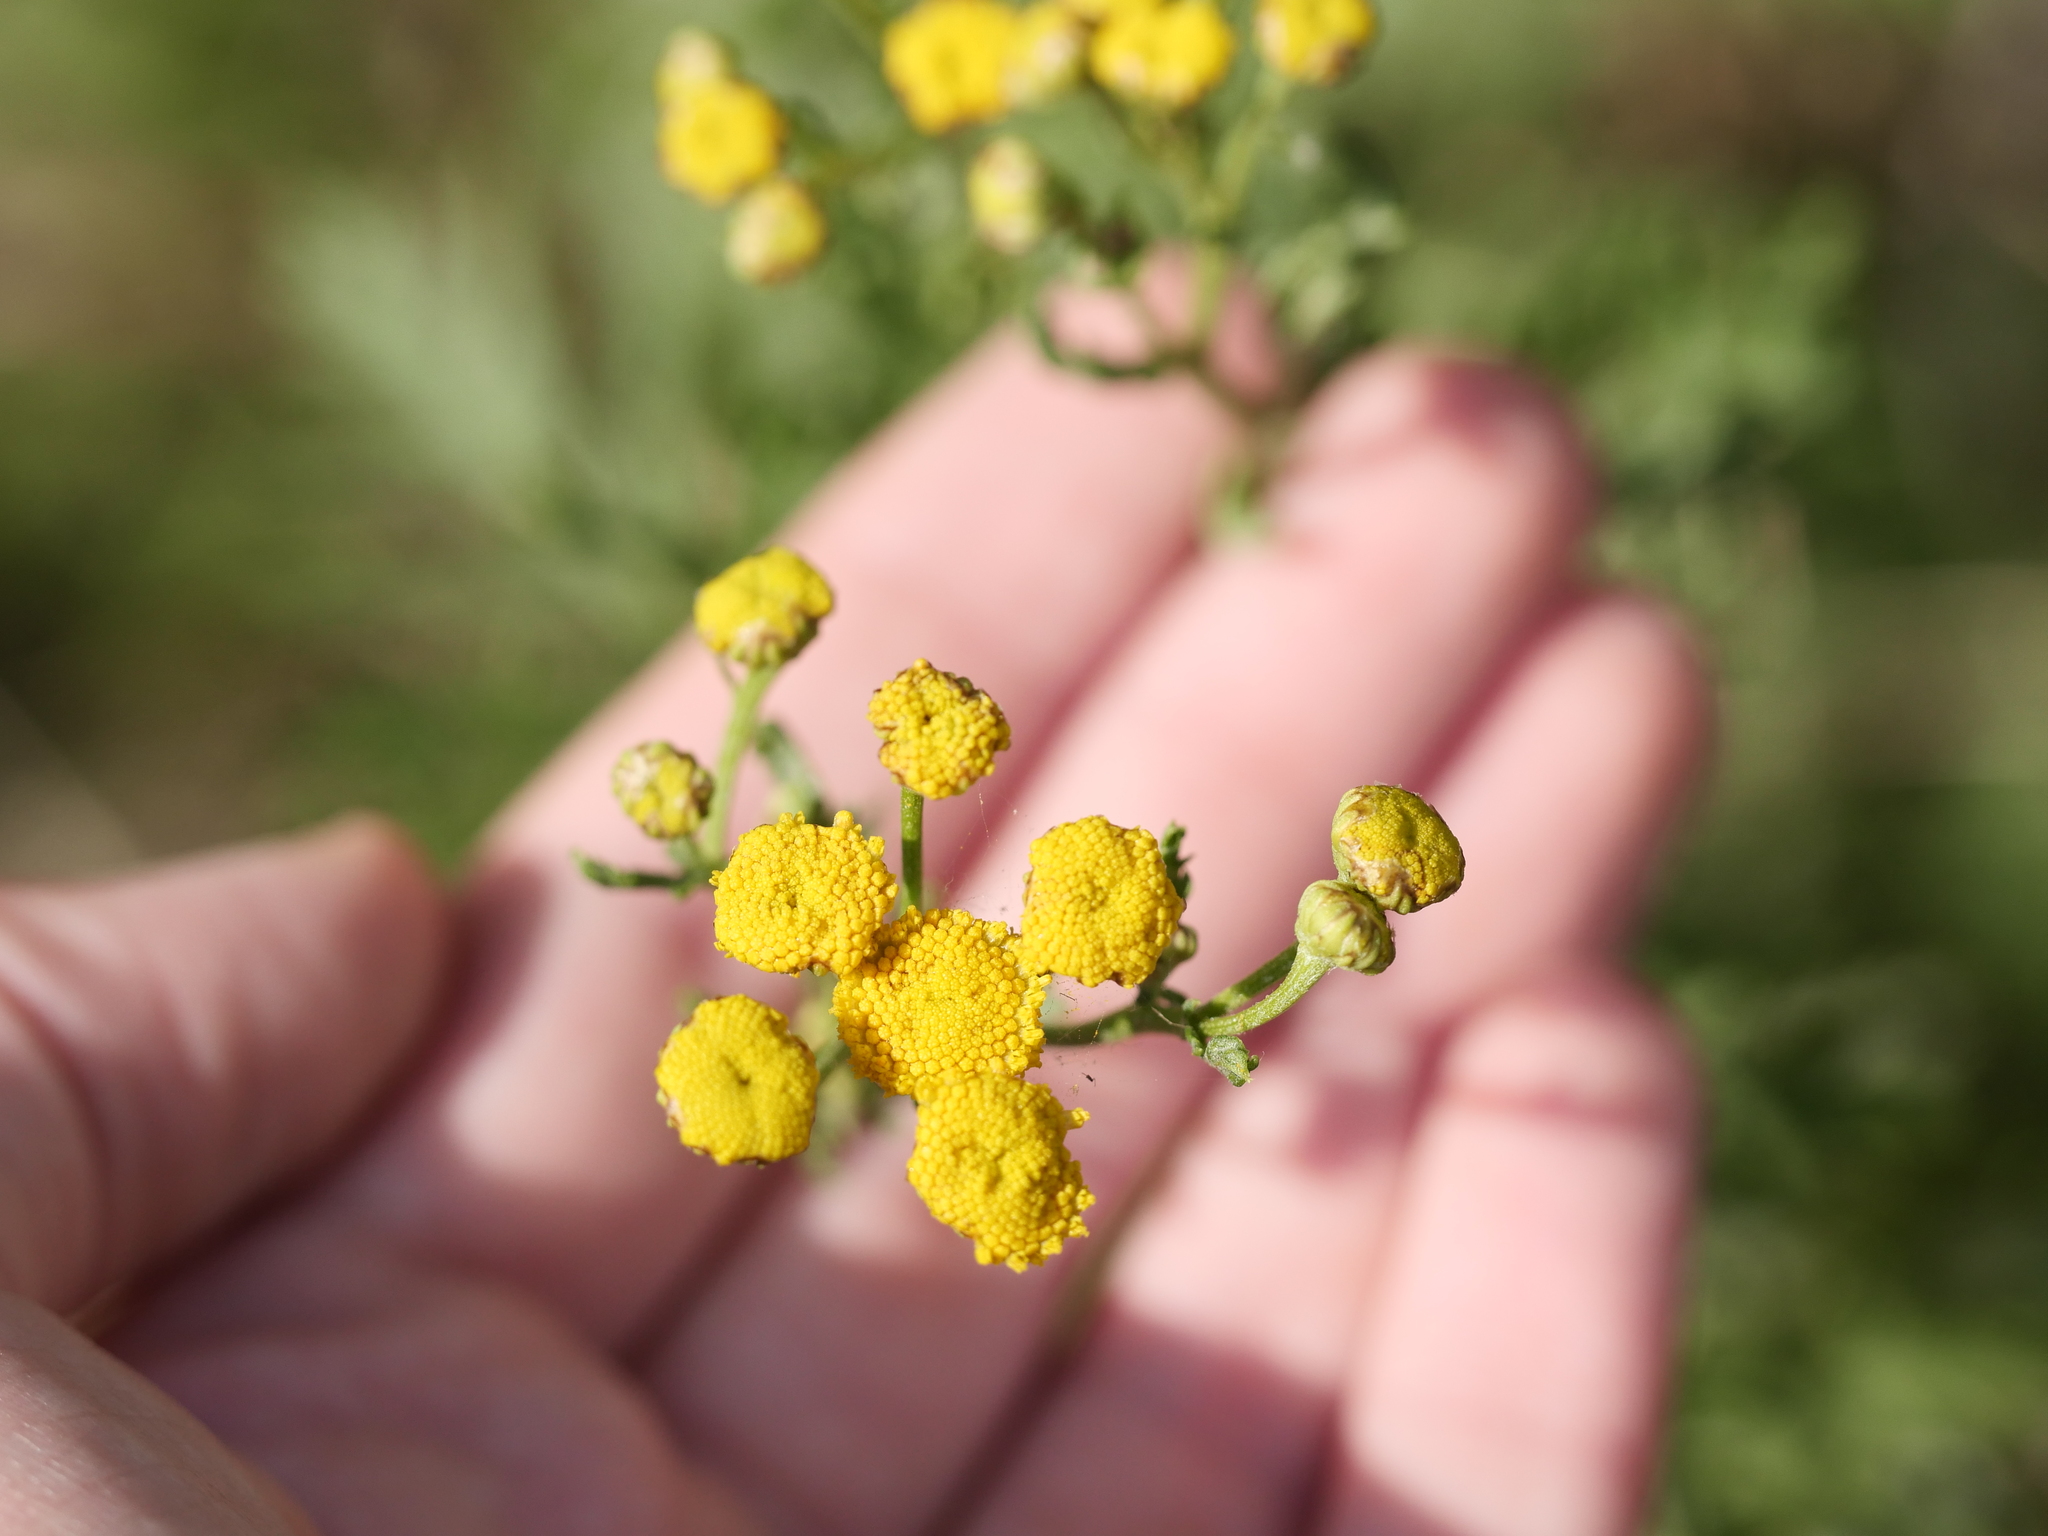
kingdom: Plantae
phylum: Tracheophyta
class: Magnoliopsida
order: Asterales
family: Asteraceae
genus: Tanacetum
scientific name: Tanacetum vulgare
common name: Common tansy
